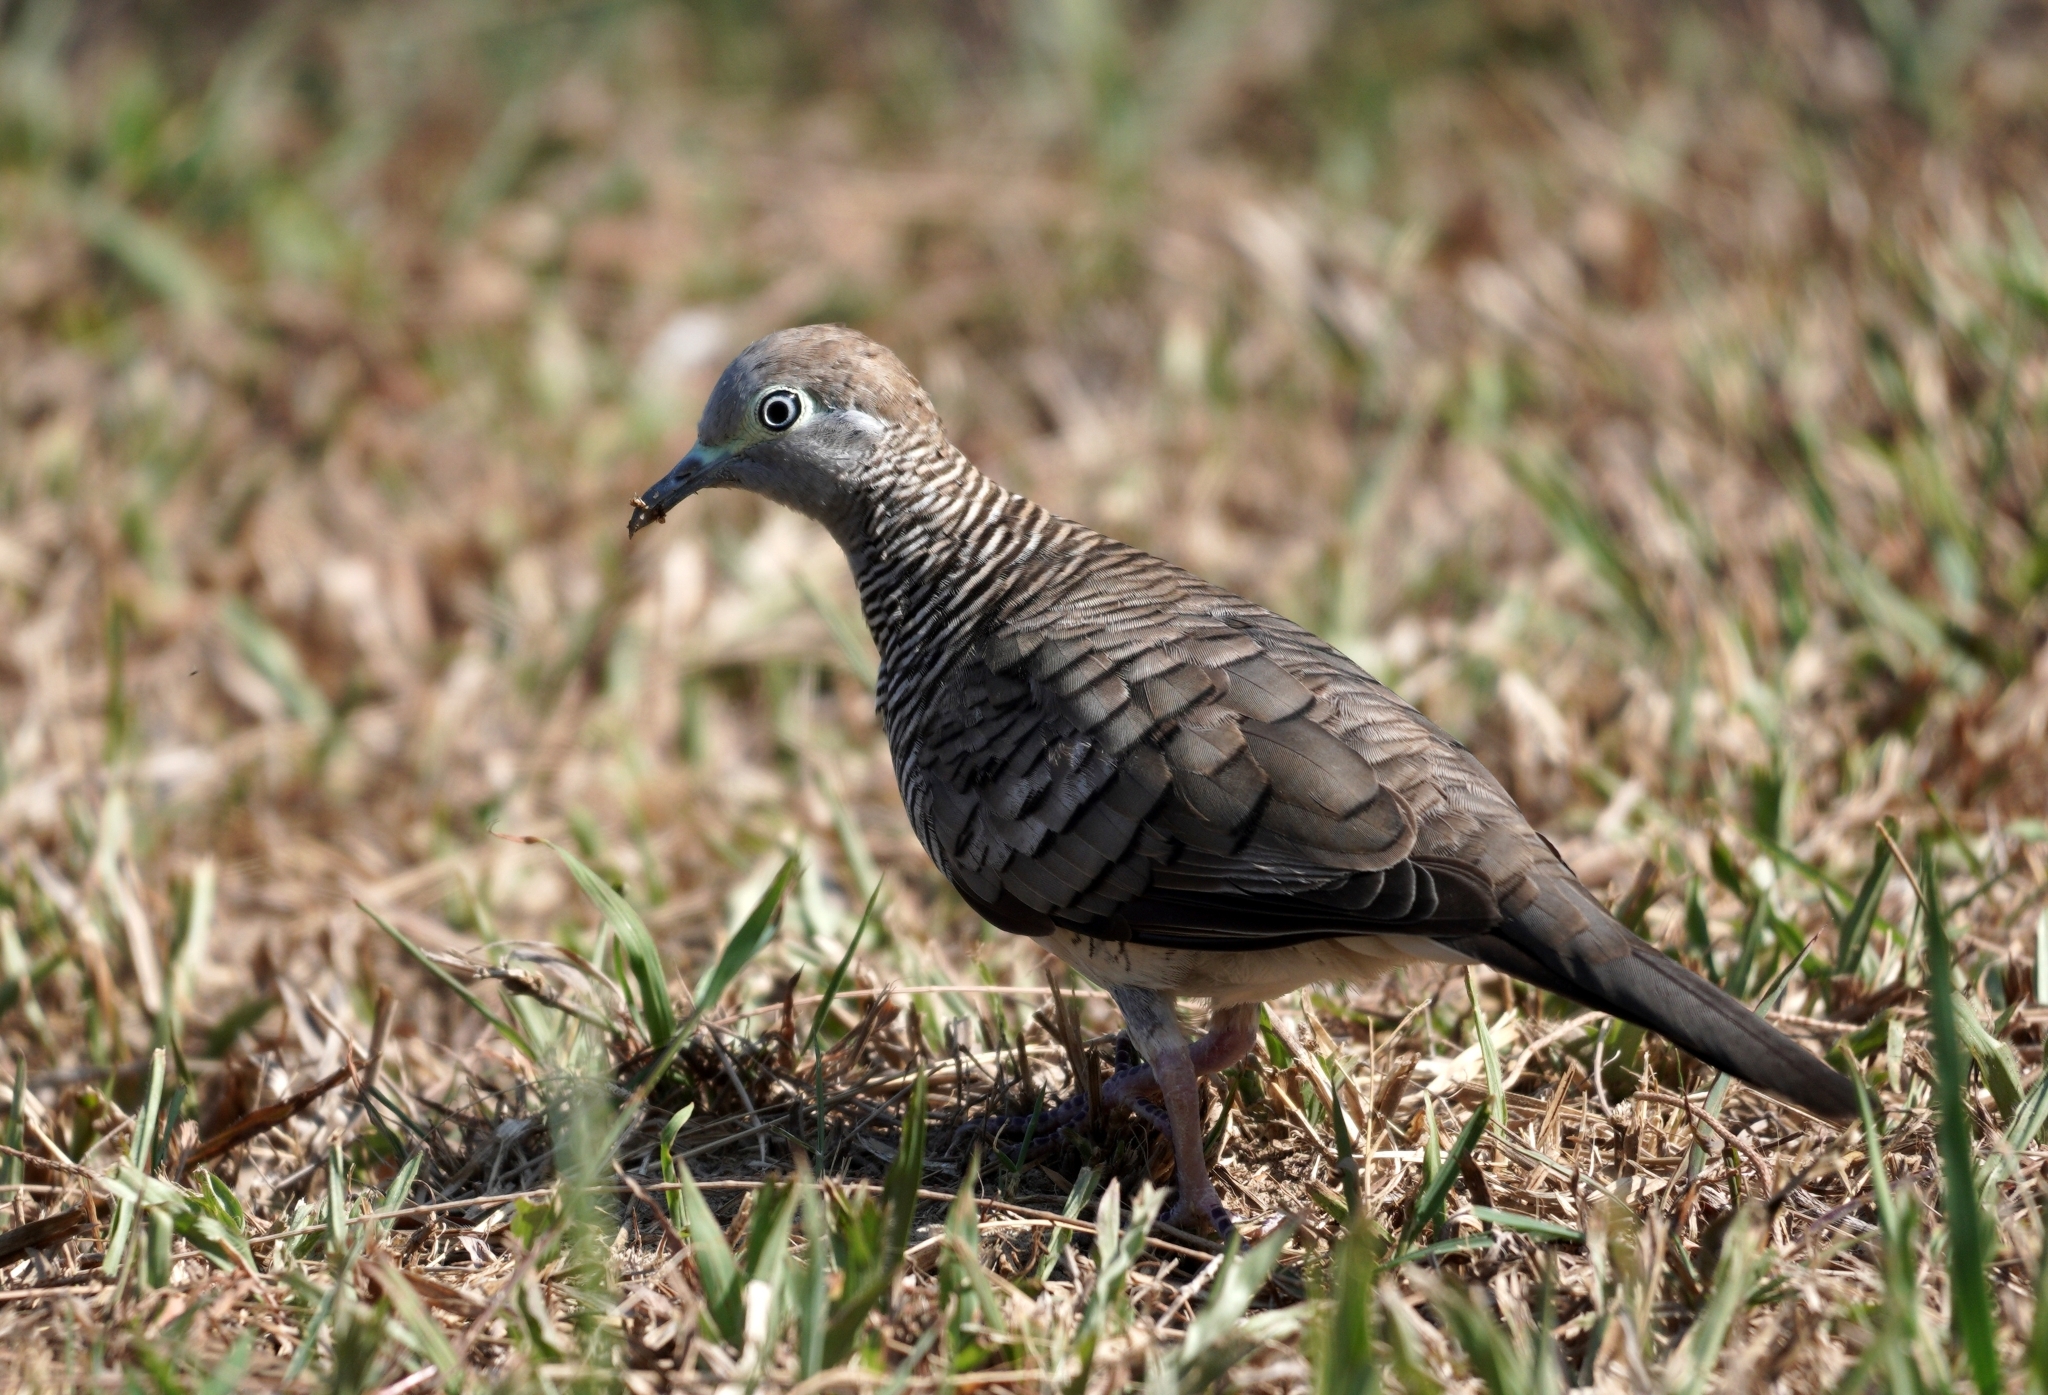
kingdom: Animalia
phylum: Chordata
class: Aves
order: Columbiformes
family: Columbidae
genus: Geopelia
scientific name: Geopelia striata
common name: Zebra dove
